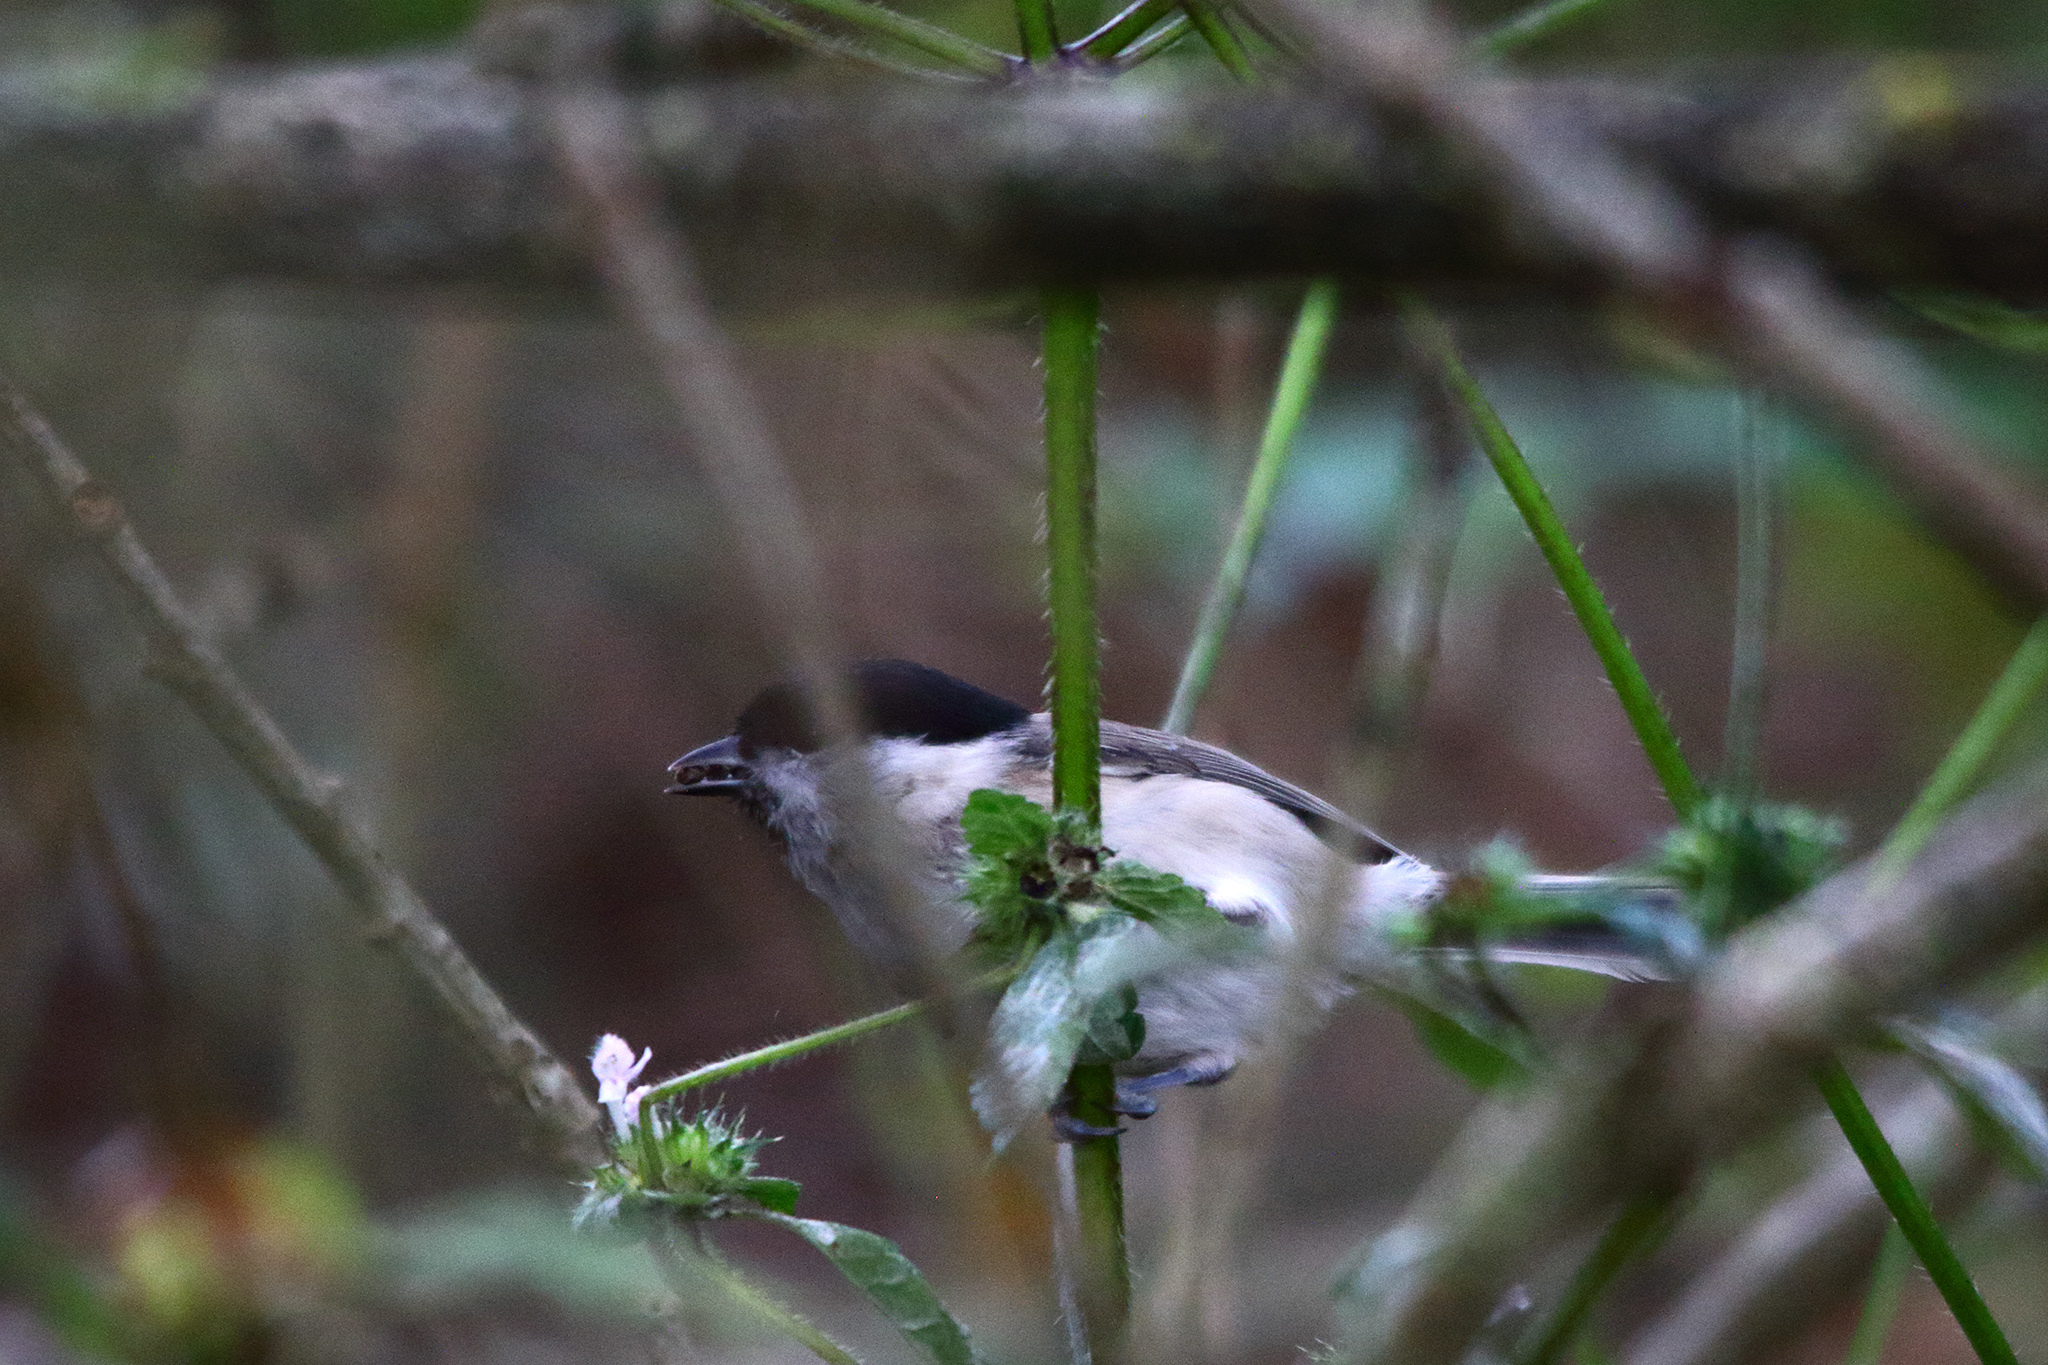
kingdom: Animalia
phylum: Chordata
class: Aves
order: Passeriformes
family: Paridae
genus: Poecile
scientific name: Poecile palustris
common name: Marsh tit
